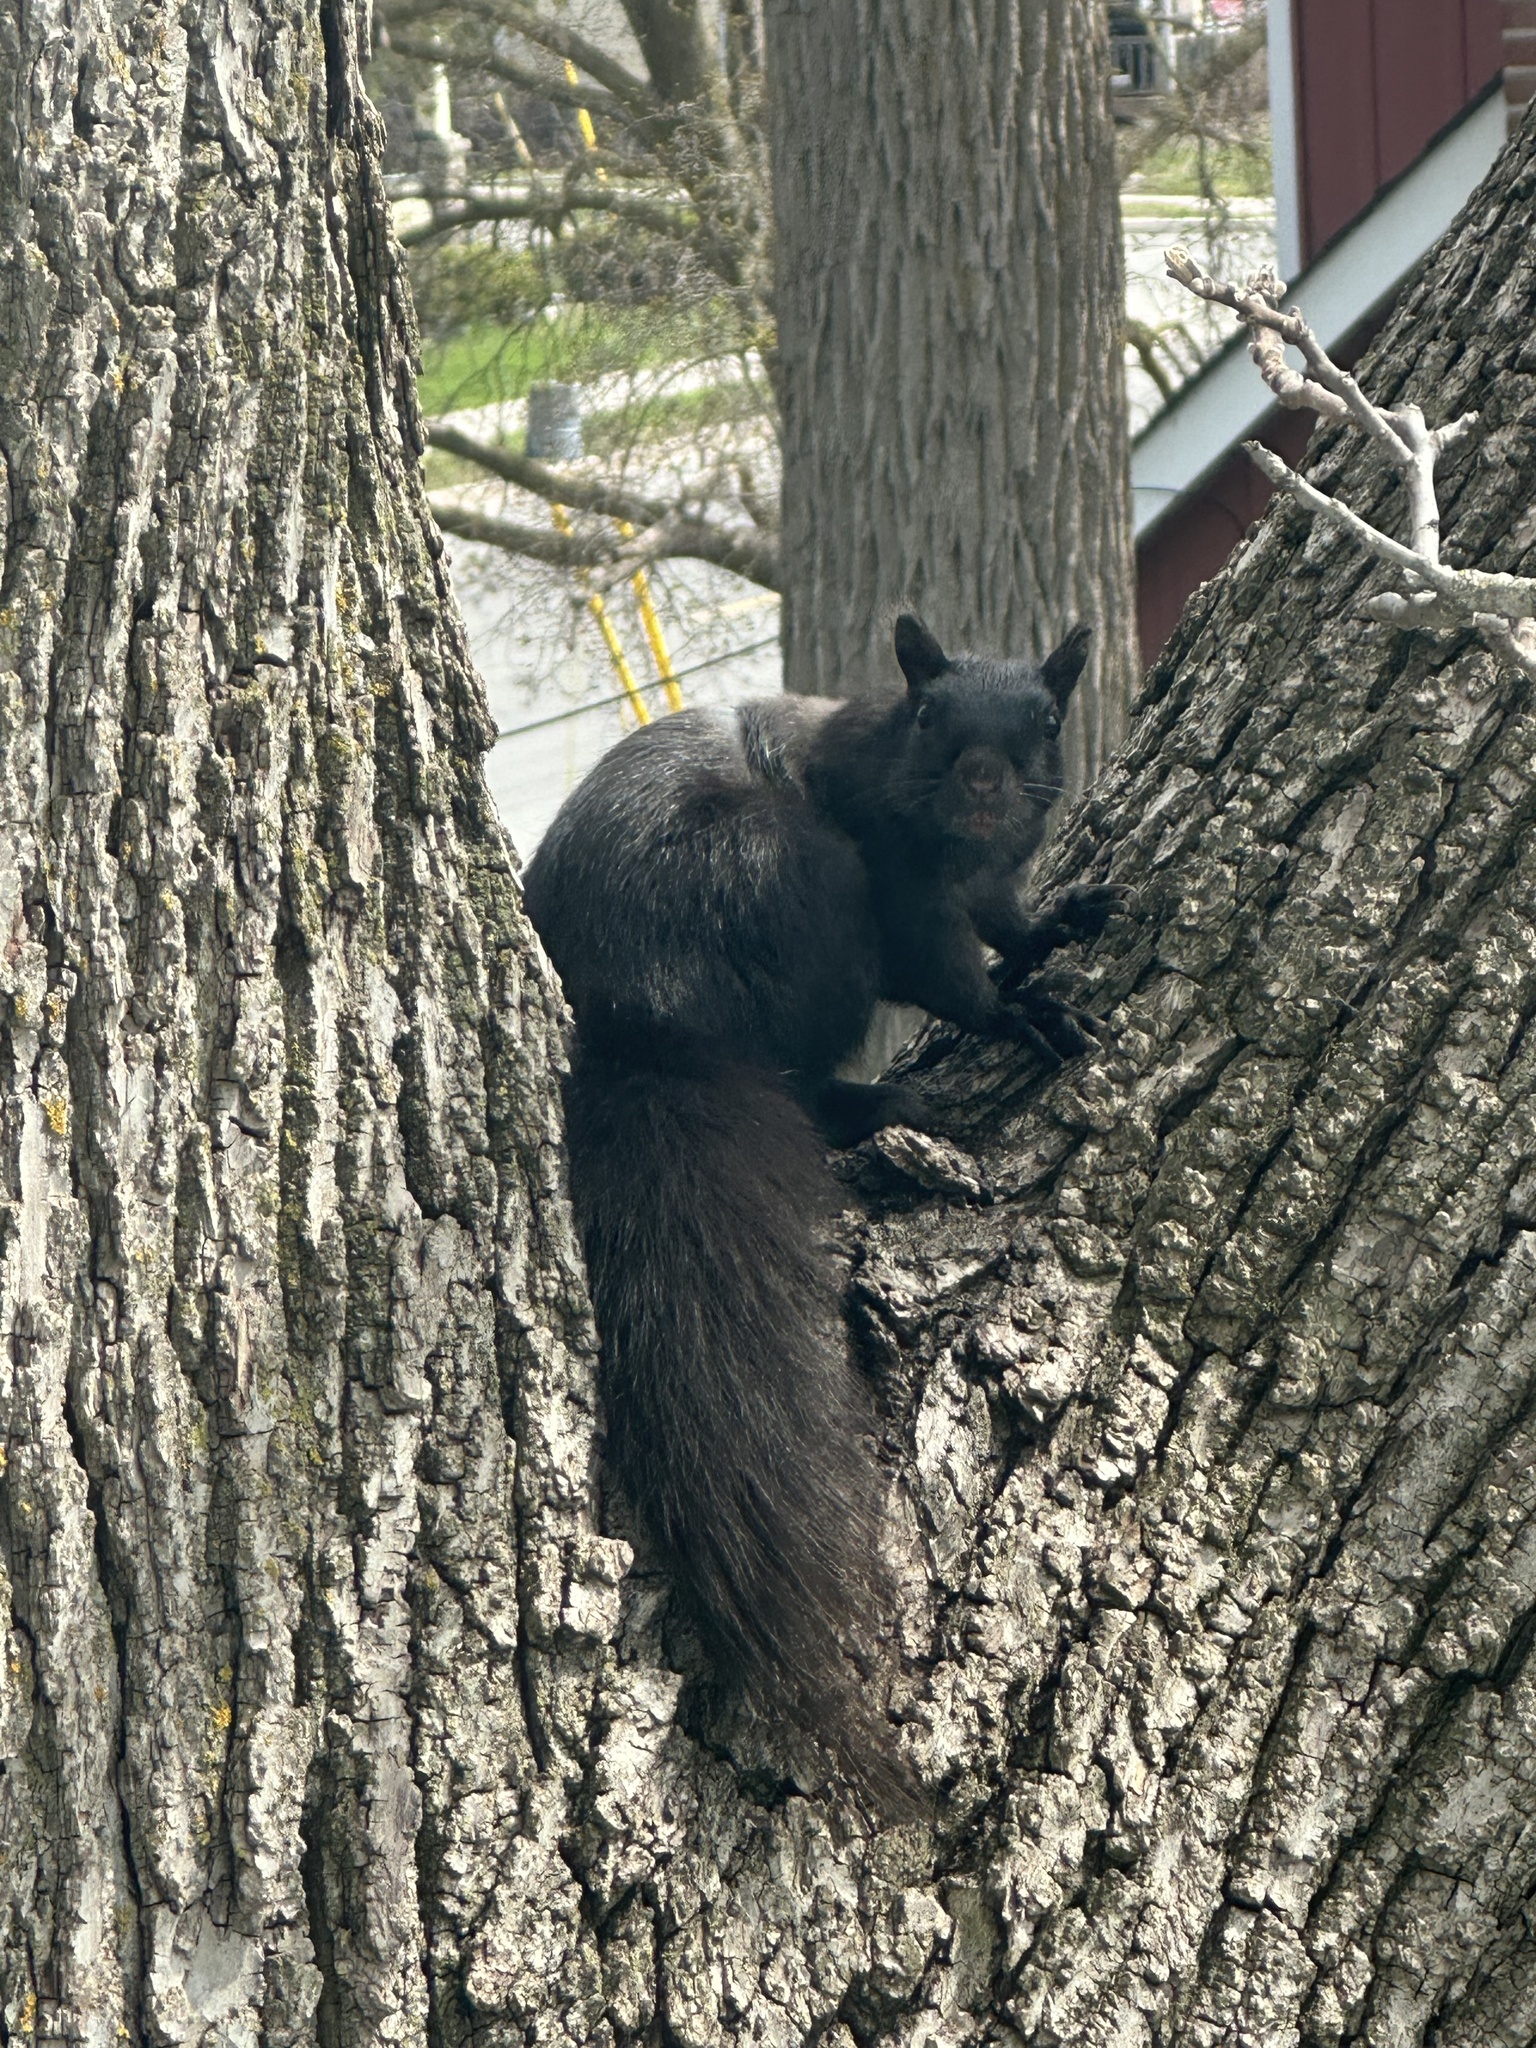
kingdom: Animalia
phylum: Chordata
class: Mammalia
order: Rodentia
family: Sciuridae
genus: Sciurus
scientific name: Sciurus carolinensis
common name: Eastern gray squirrel
